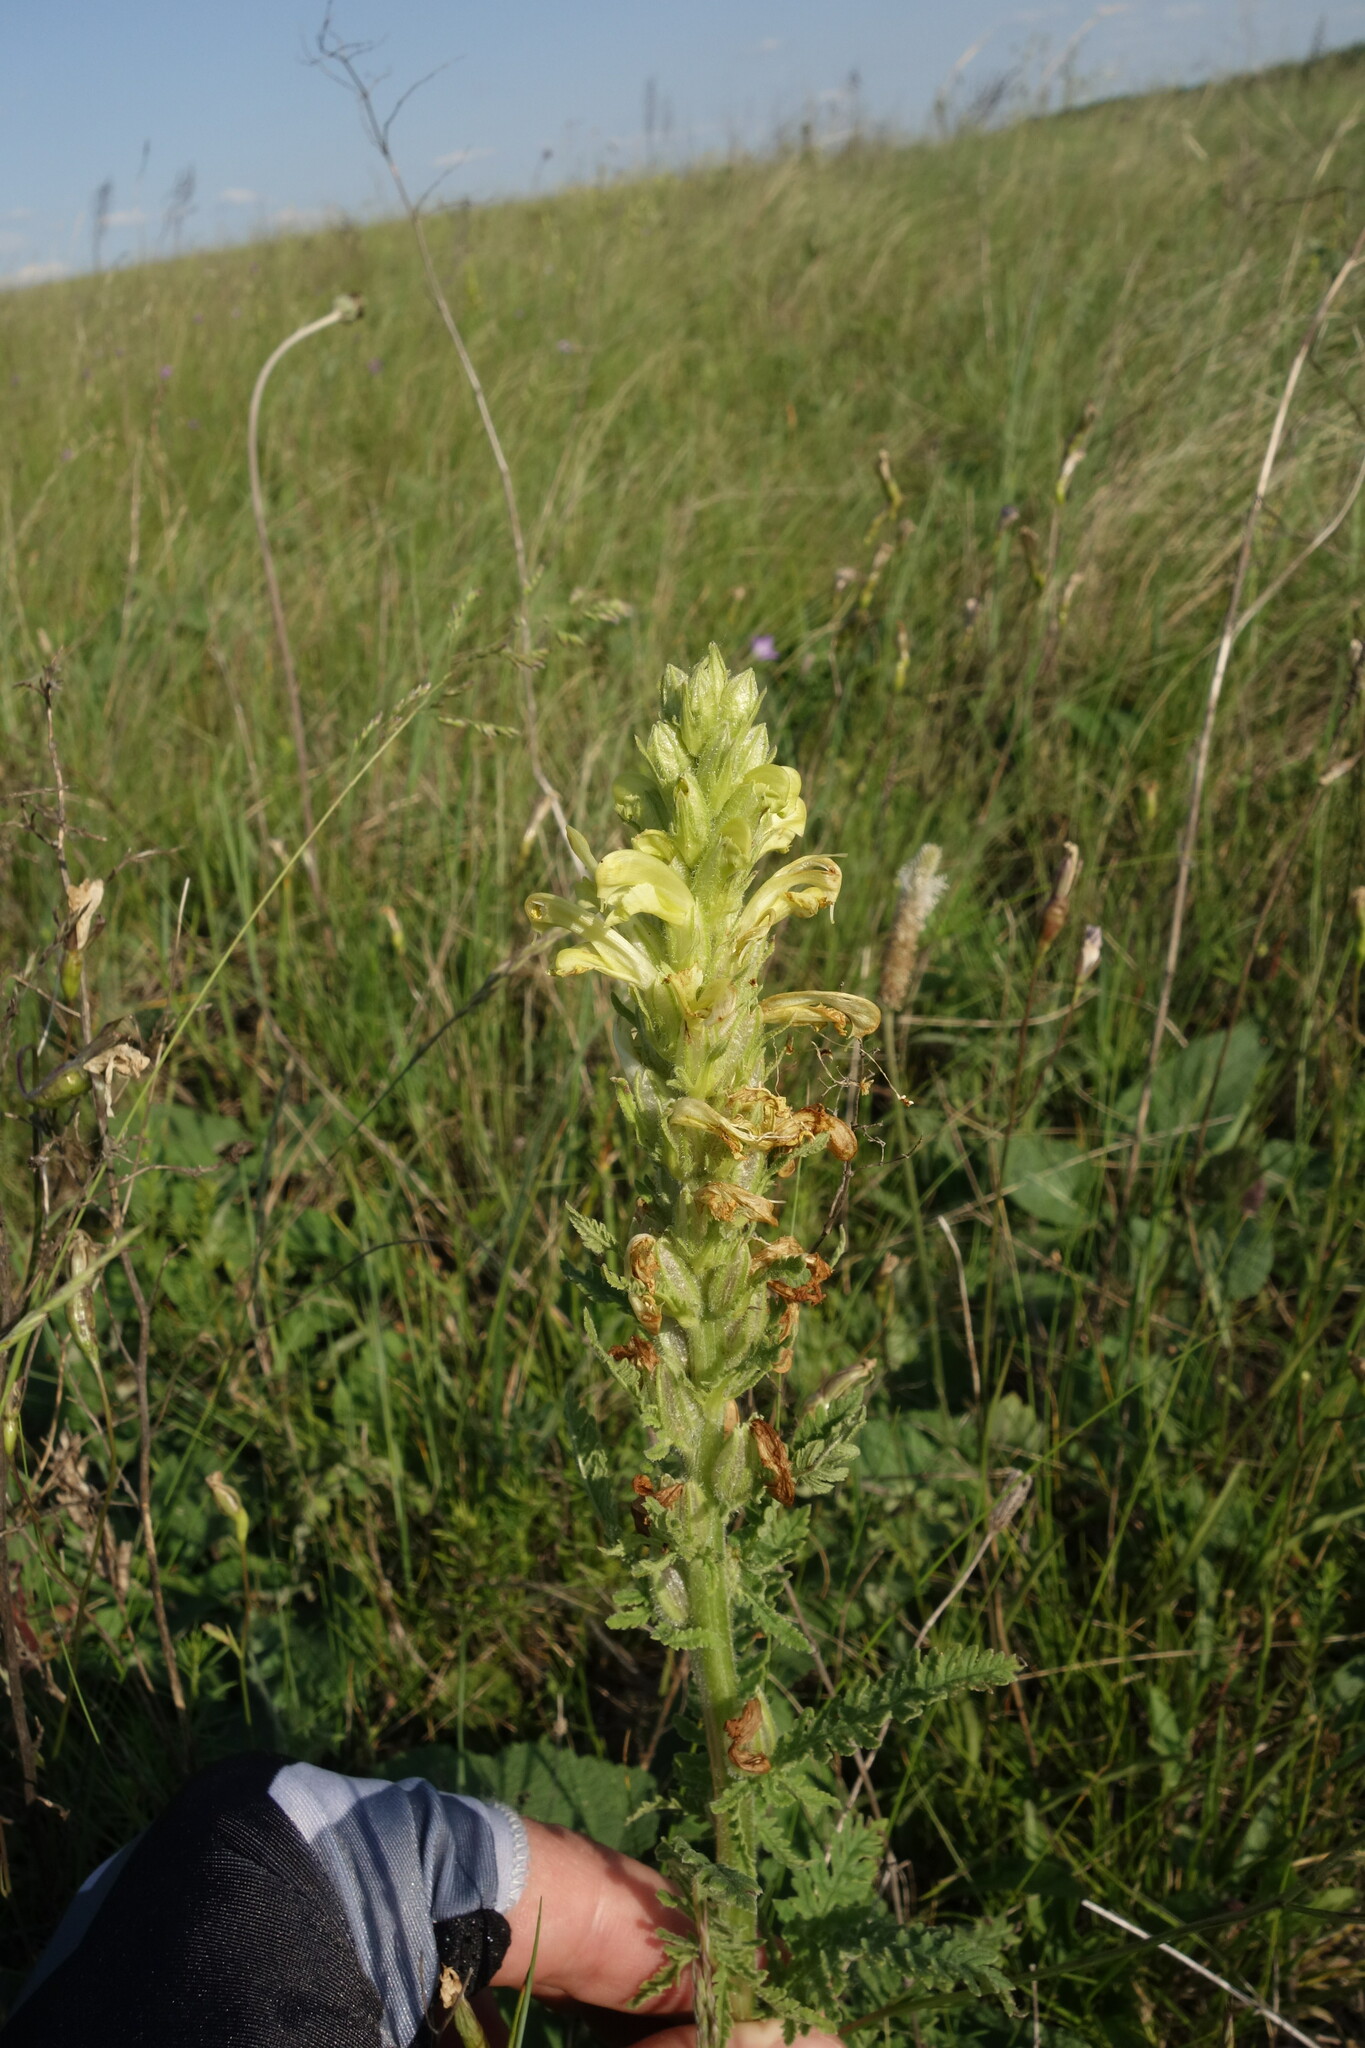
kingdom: Plantae
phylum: Tracheophyta
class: Magnoliopsida
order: Lamiales
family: Orobanchaceae
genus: Pedicularis
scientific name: Pedicularis kaufmannii
